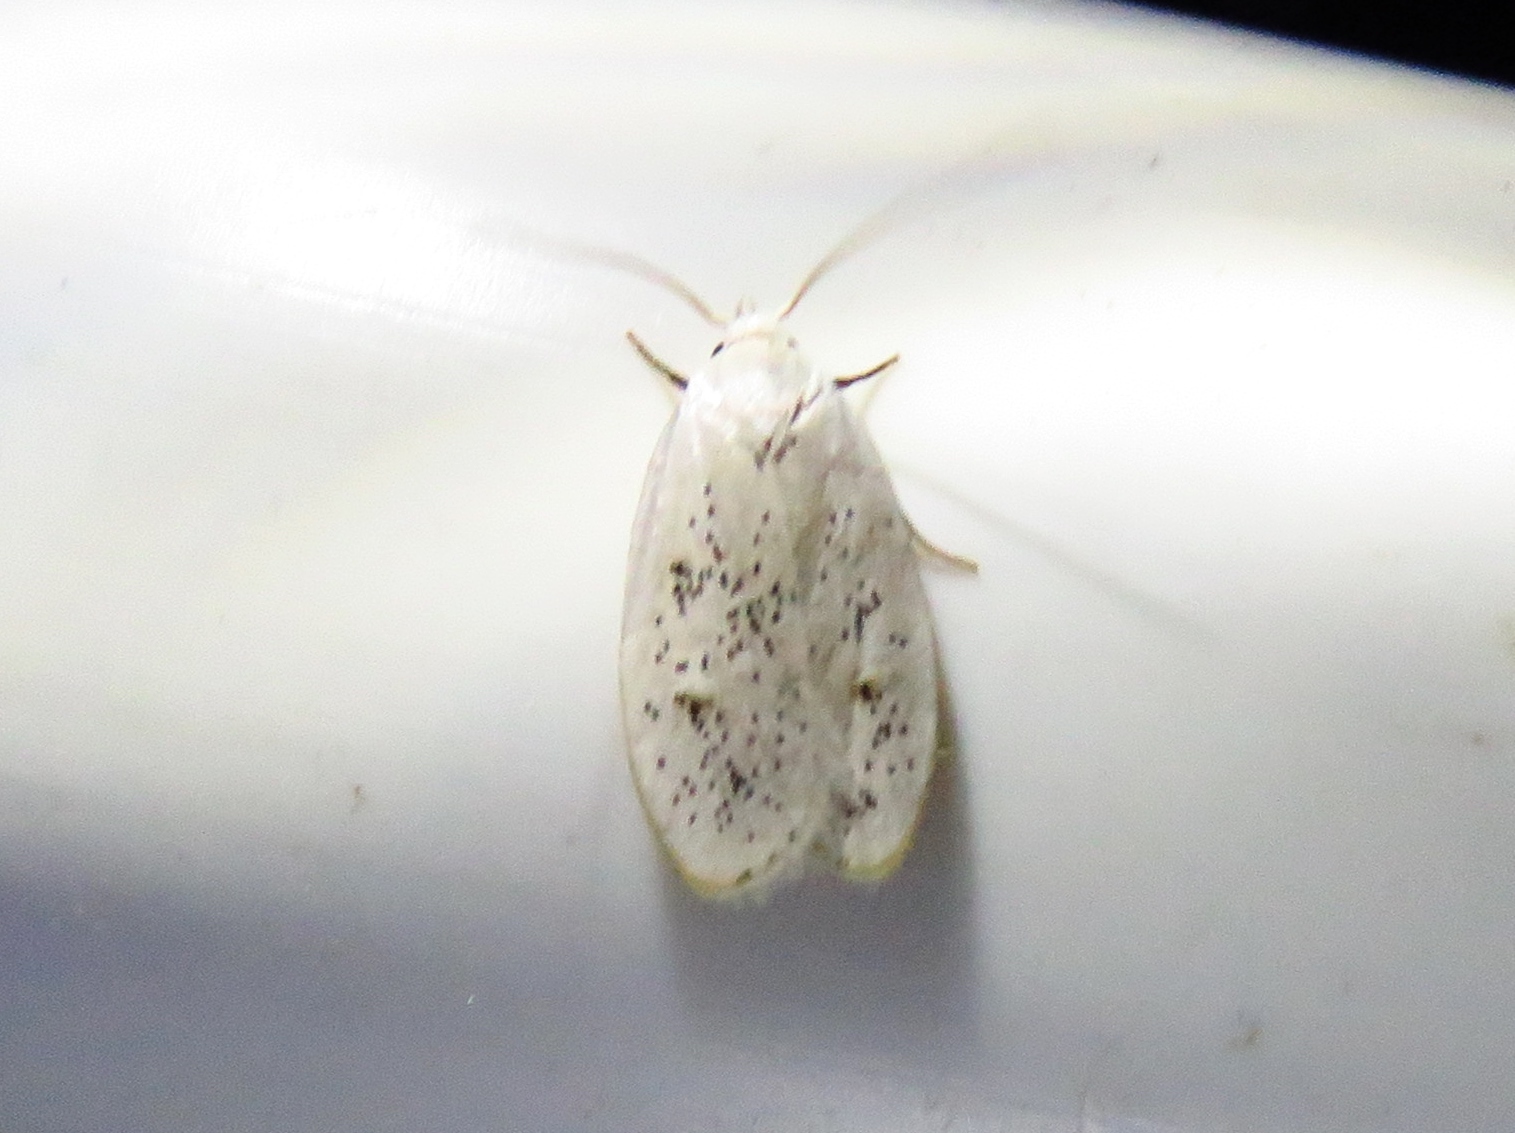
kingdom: Animalia
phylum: Arthropoda
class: Insecta
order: Lepidoptera
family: Peleopodidae
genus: Durrantia
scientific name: Durrantia piperatella
